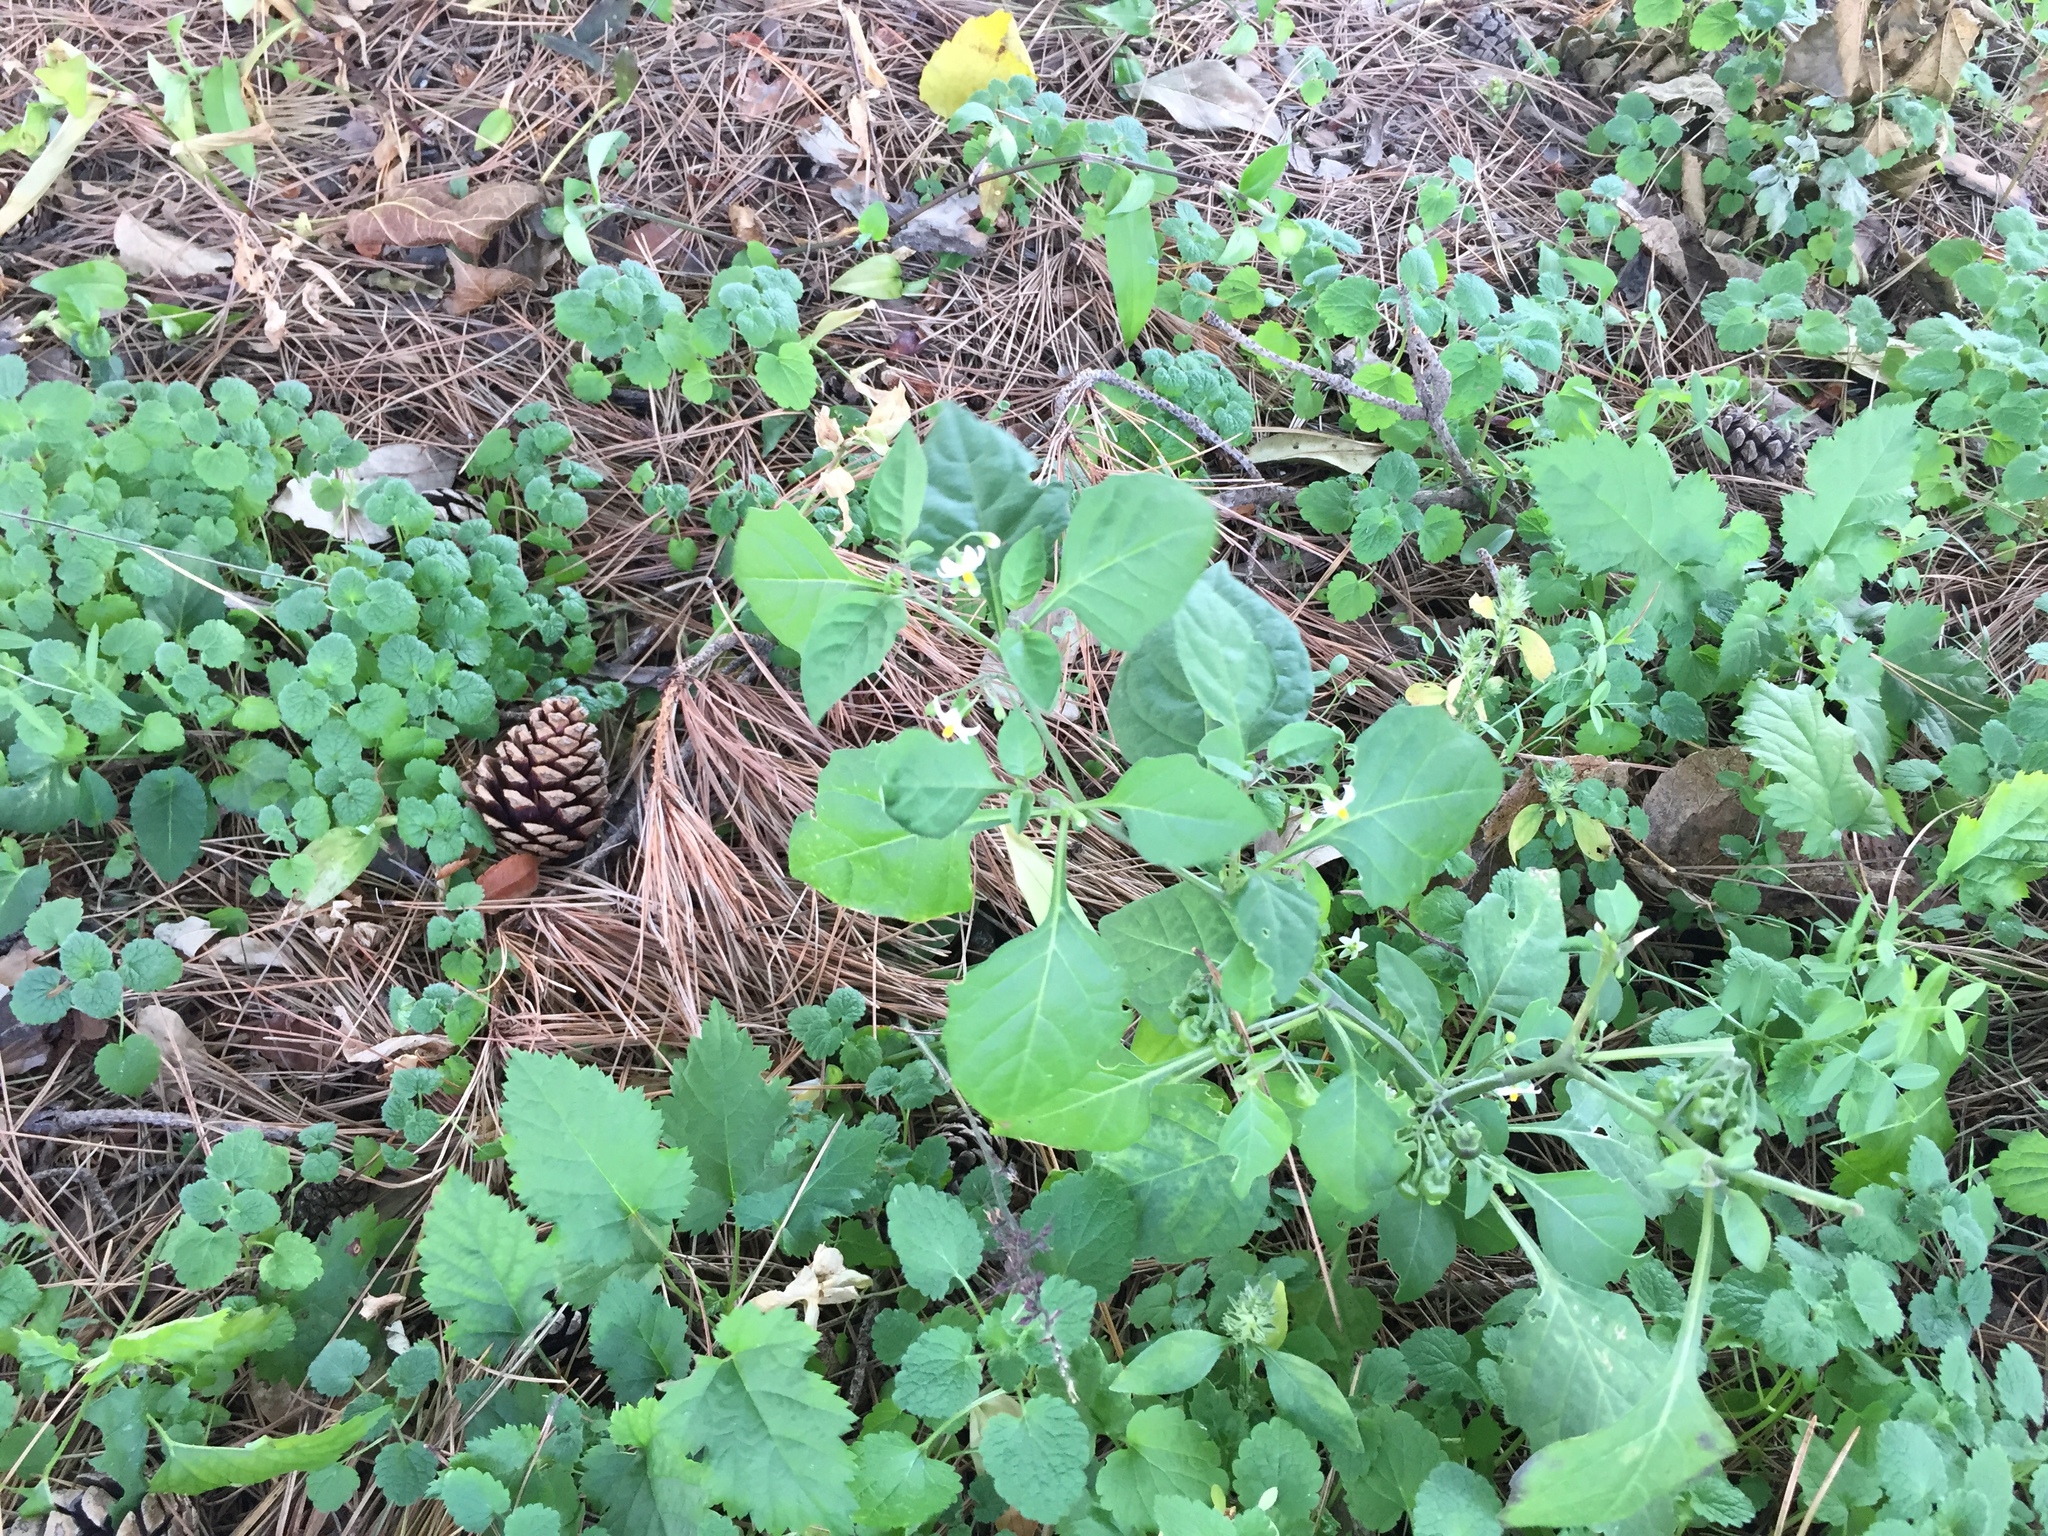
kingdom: Plantae
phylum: Tracheophyta
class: Magnoliopsida
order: Solanales
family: Solanaceae
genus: Solanum
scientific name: Solanum nigrum
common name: Black nightshade
